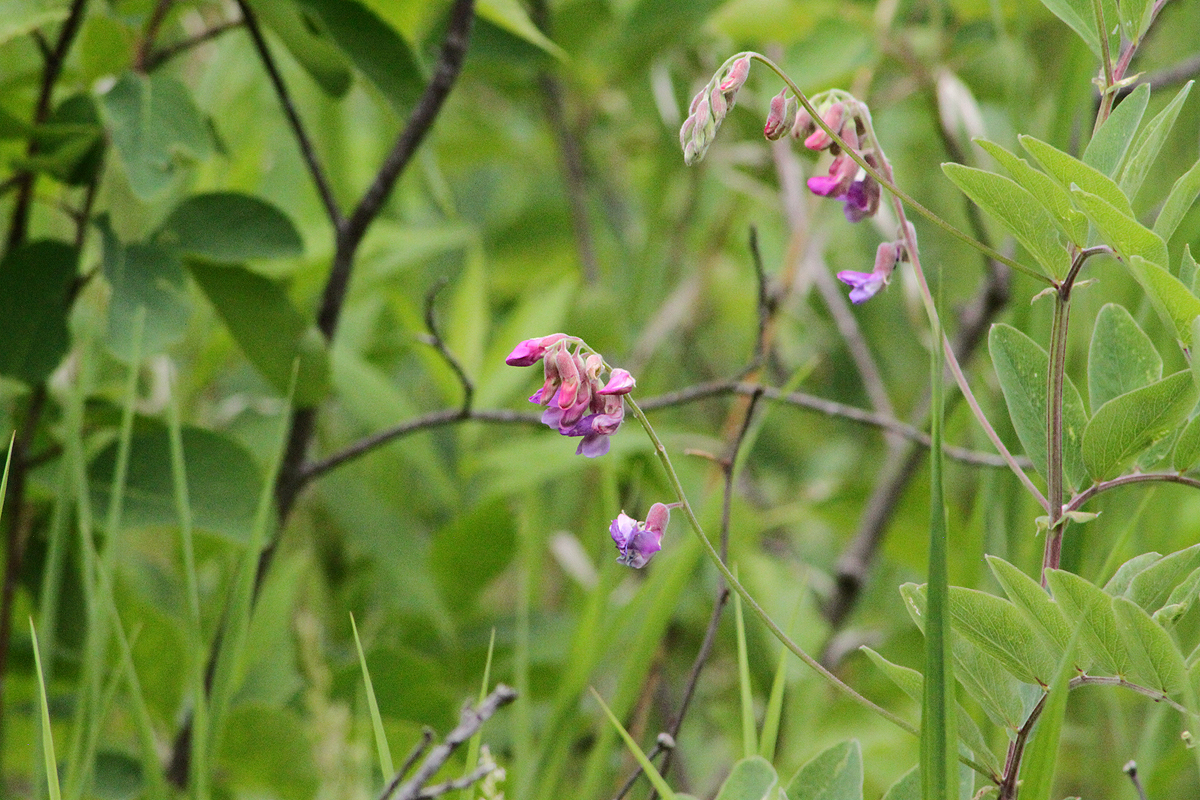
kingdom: Plantae
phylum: Tracheophyta
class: Magnoliopsida
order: Fabales
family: Fabaceae
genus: Lathyrus
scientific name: Lathyrus venosus
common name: Forest-pea
